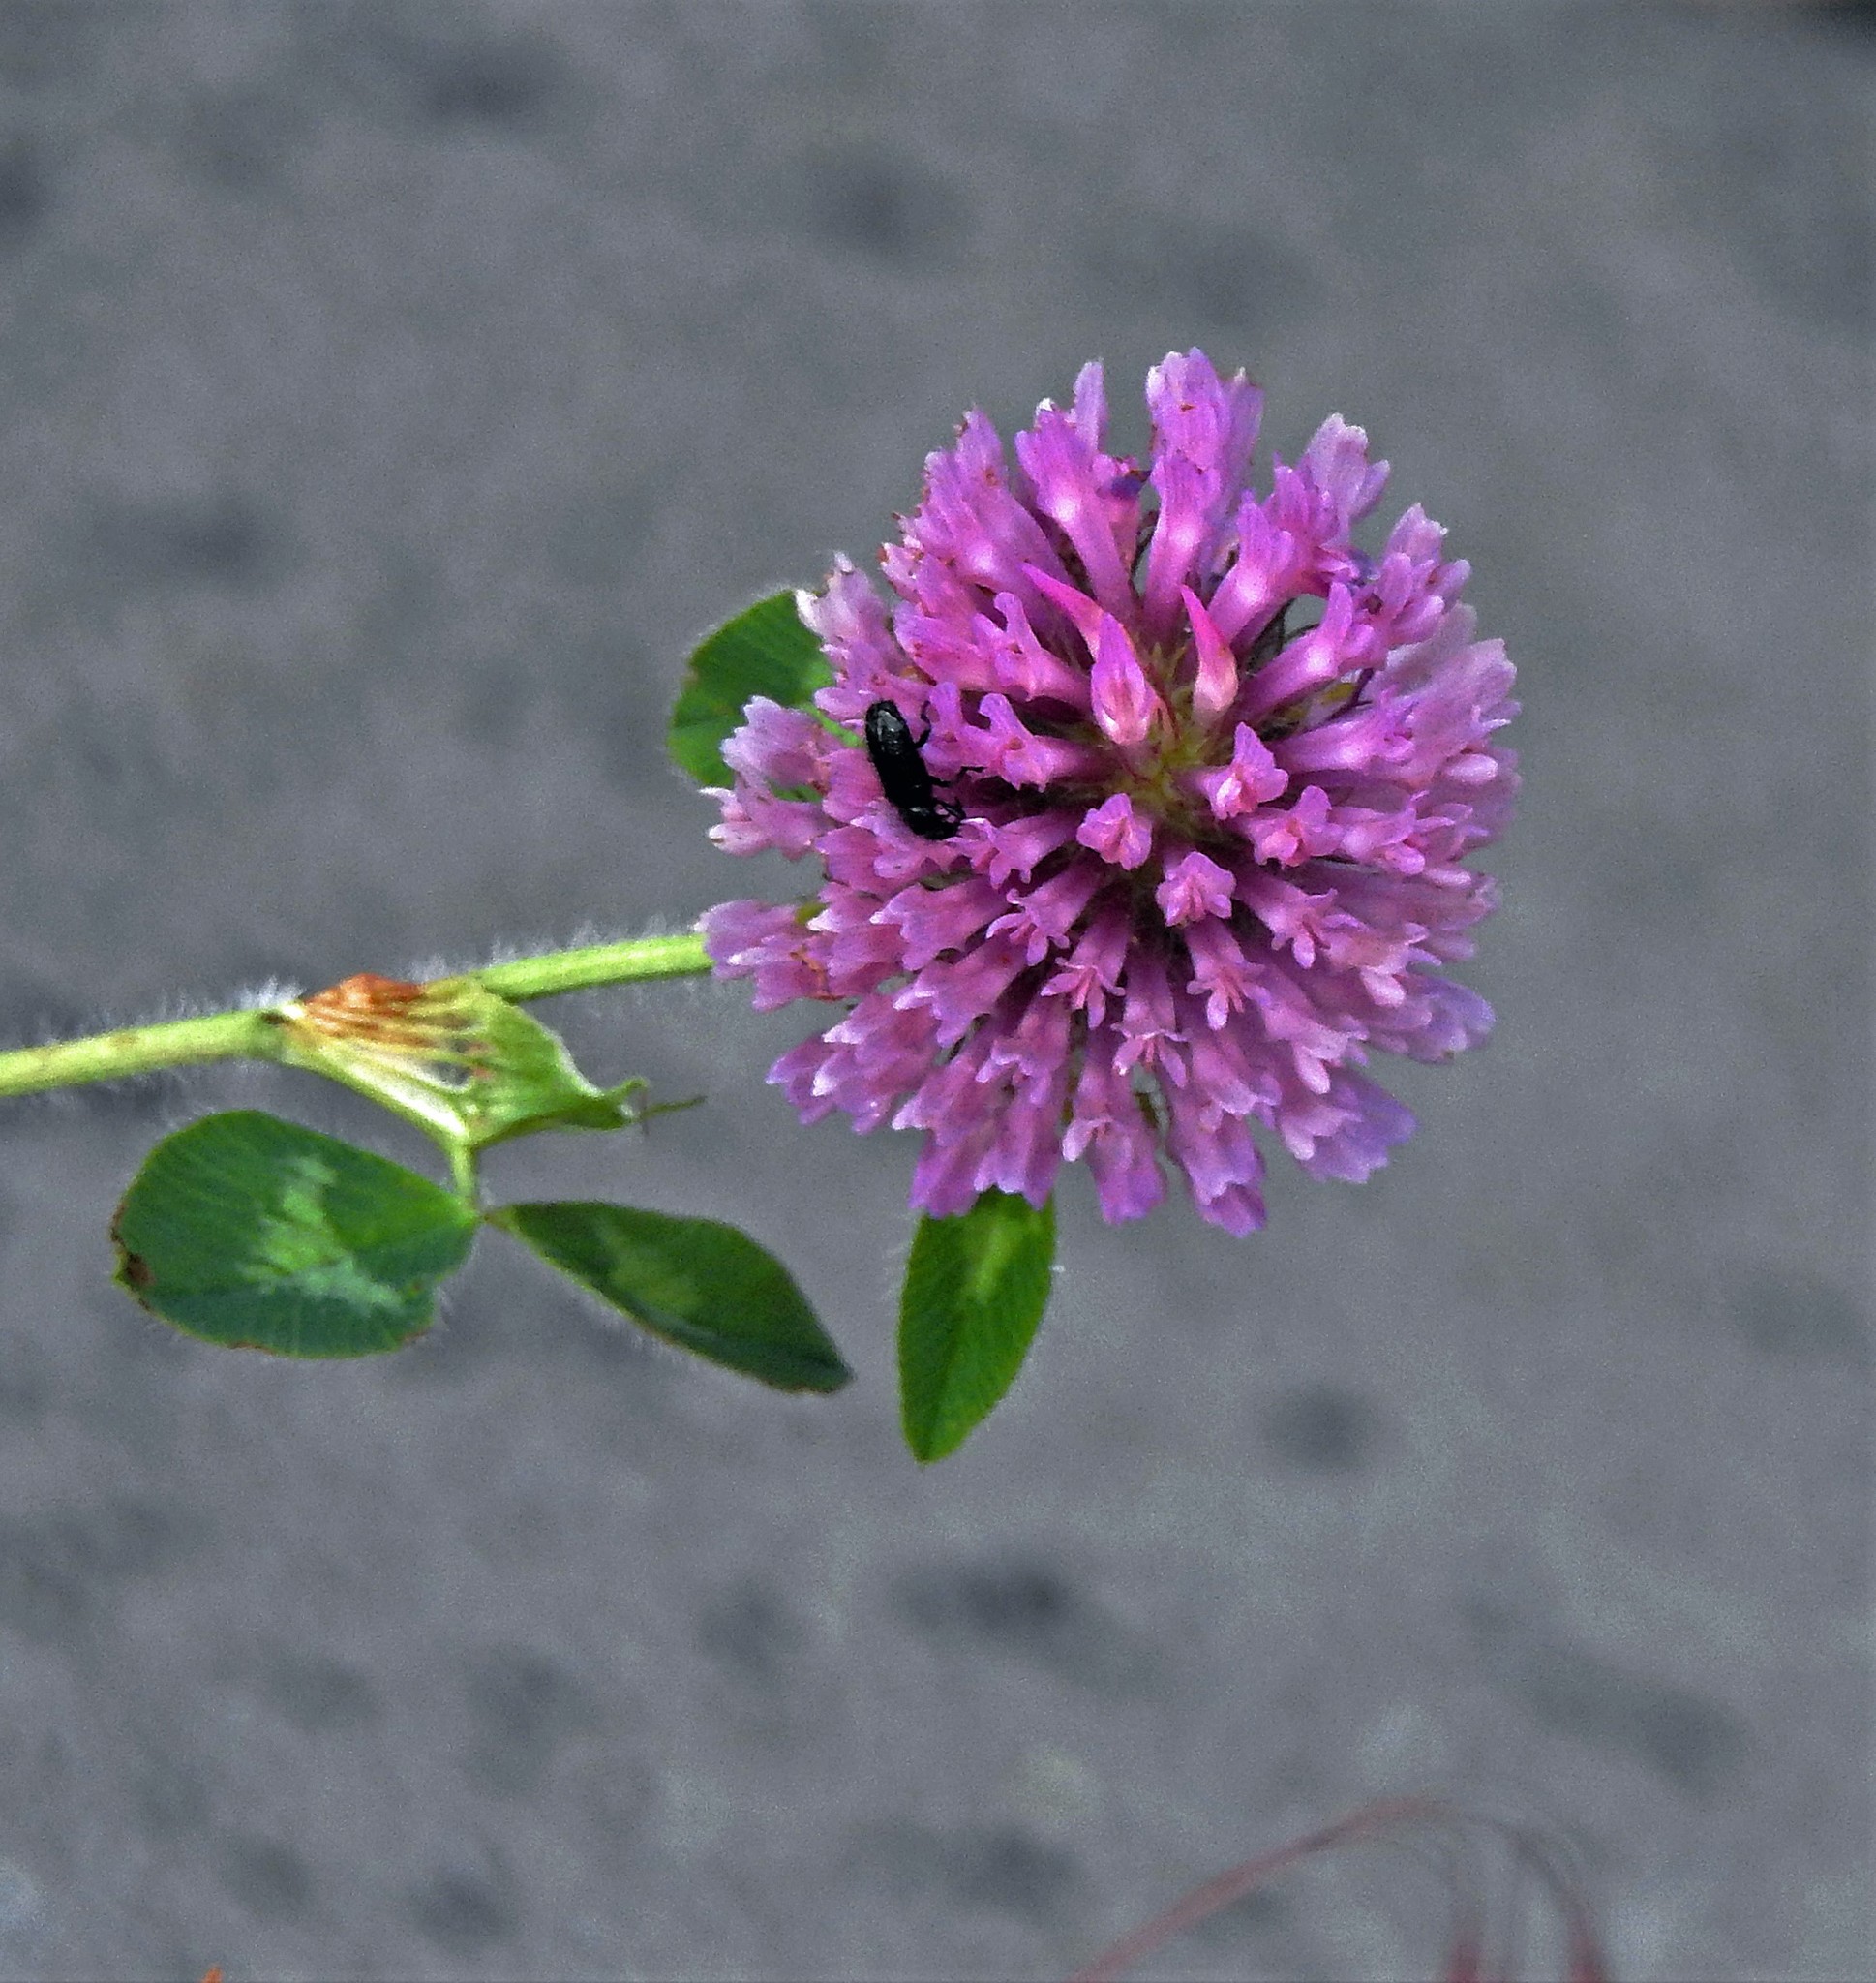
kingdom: Plantae
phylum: Tracheophyta
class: Magnoliopsida
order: Fabales
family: Fabaceae
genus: Trifolium
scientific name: Trifolium pratense
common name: Red clover
